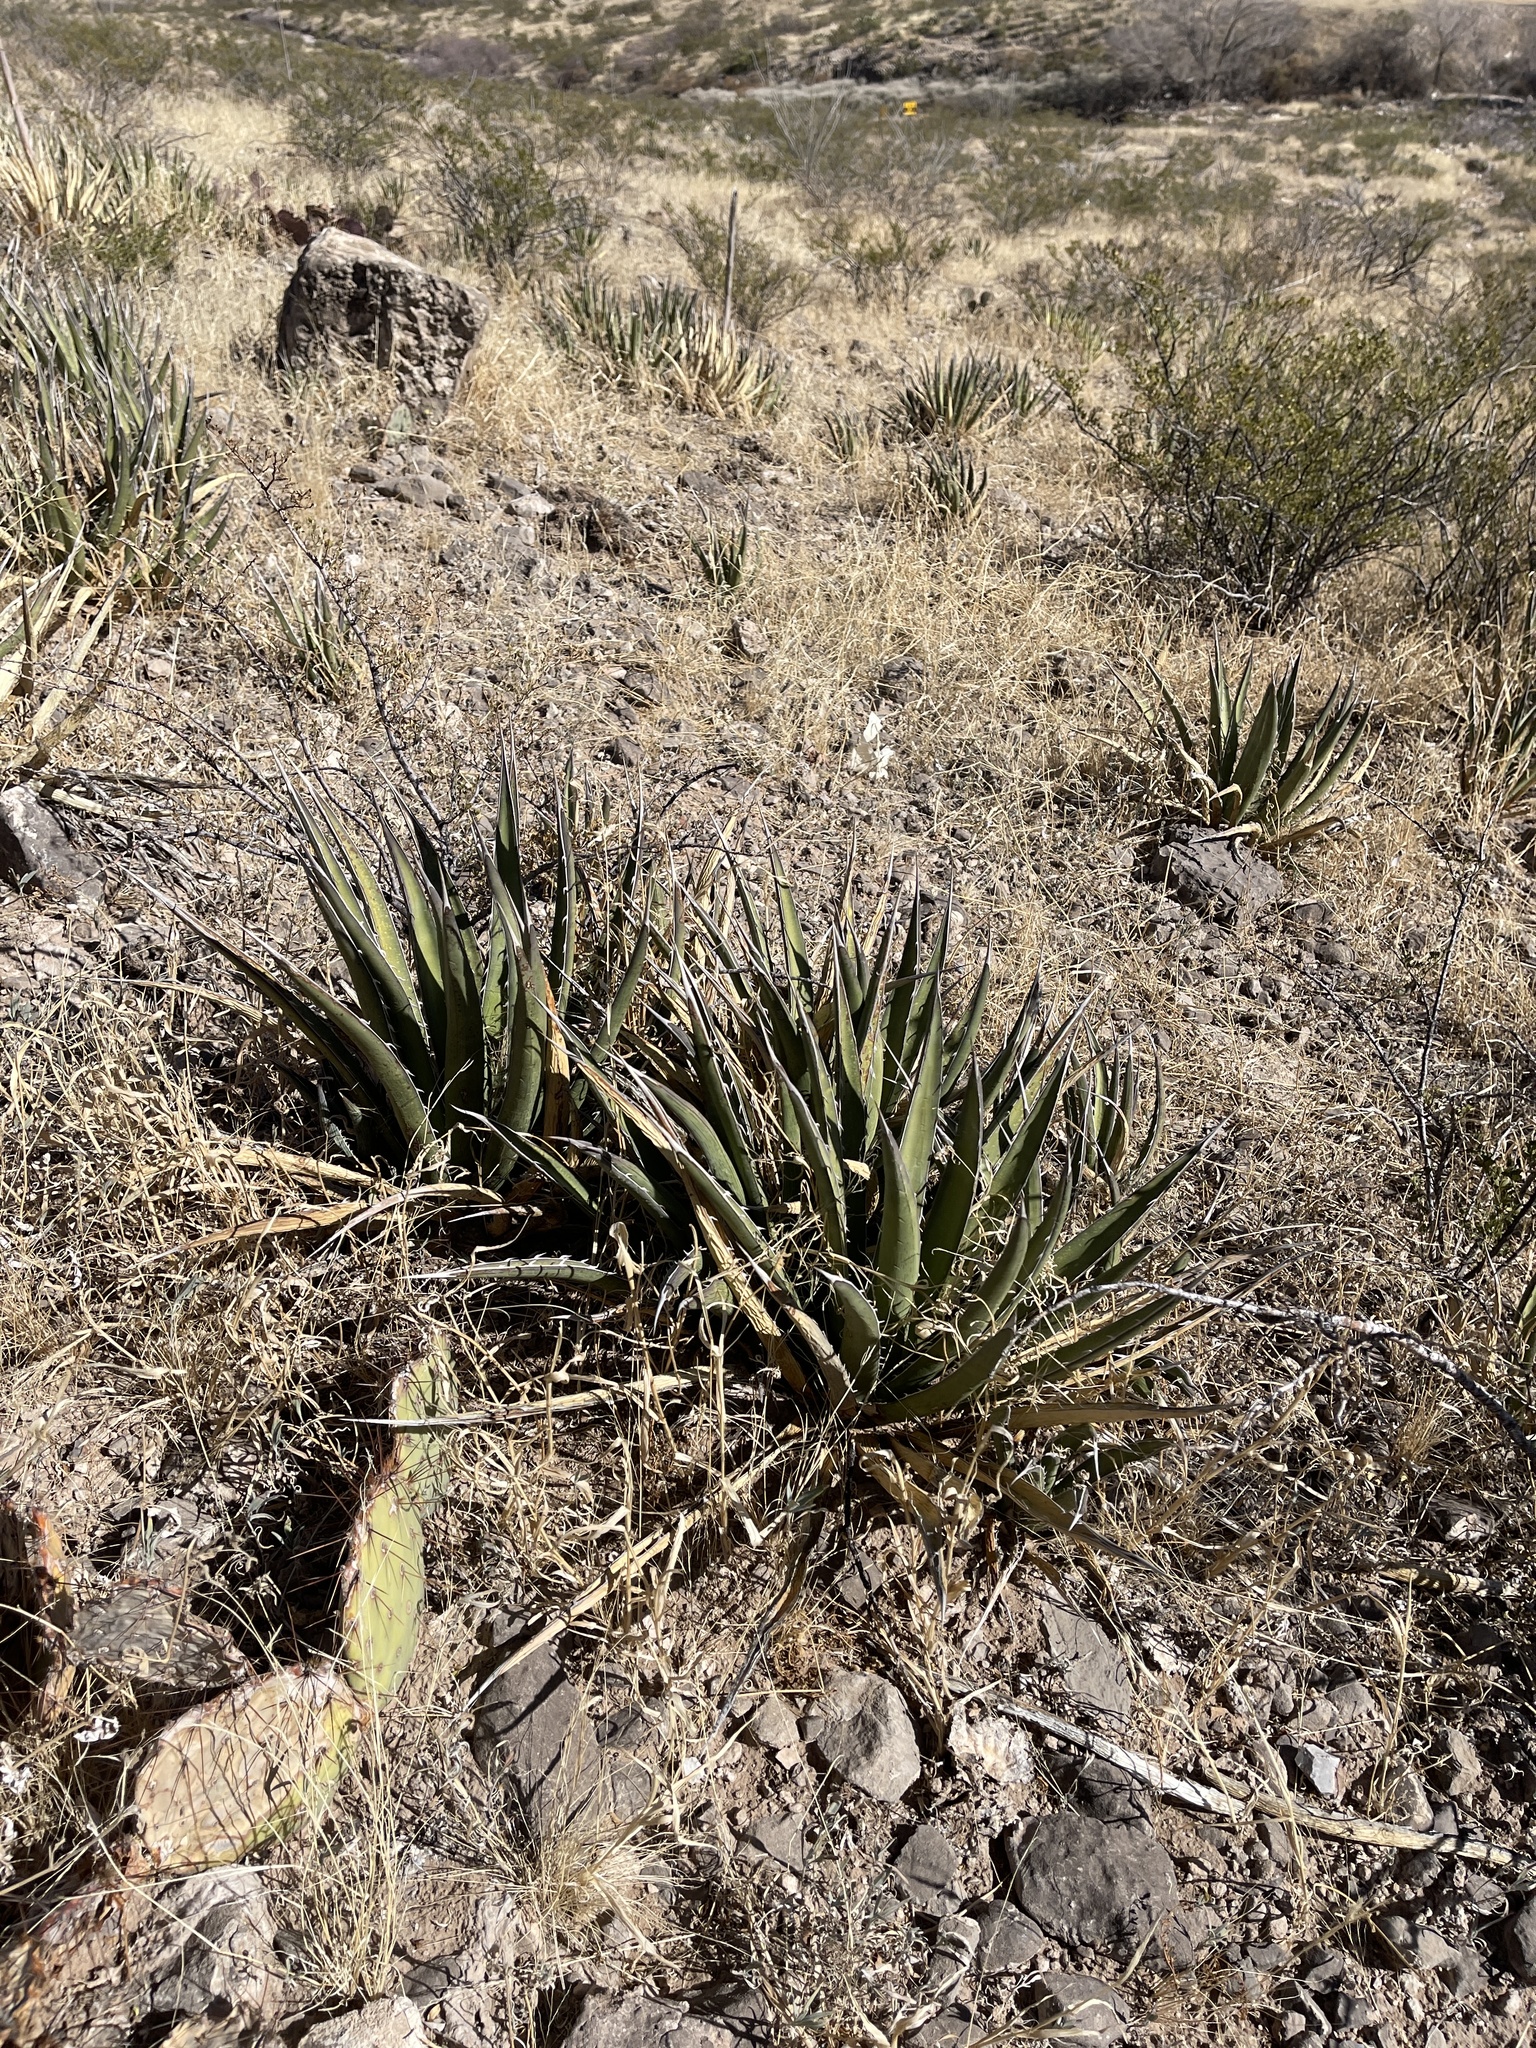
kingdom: Plantae
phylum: Tracheophyta
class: Liliopsida
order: Asparagales
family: Asparagaceae
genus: Agave
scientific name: Agave lechuguilla
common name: Lecheguilla agave
